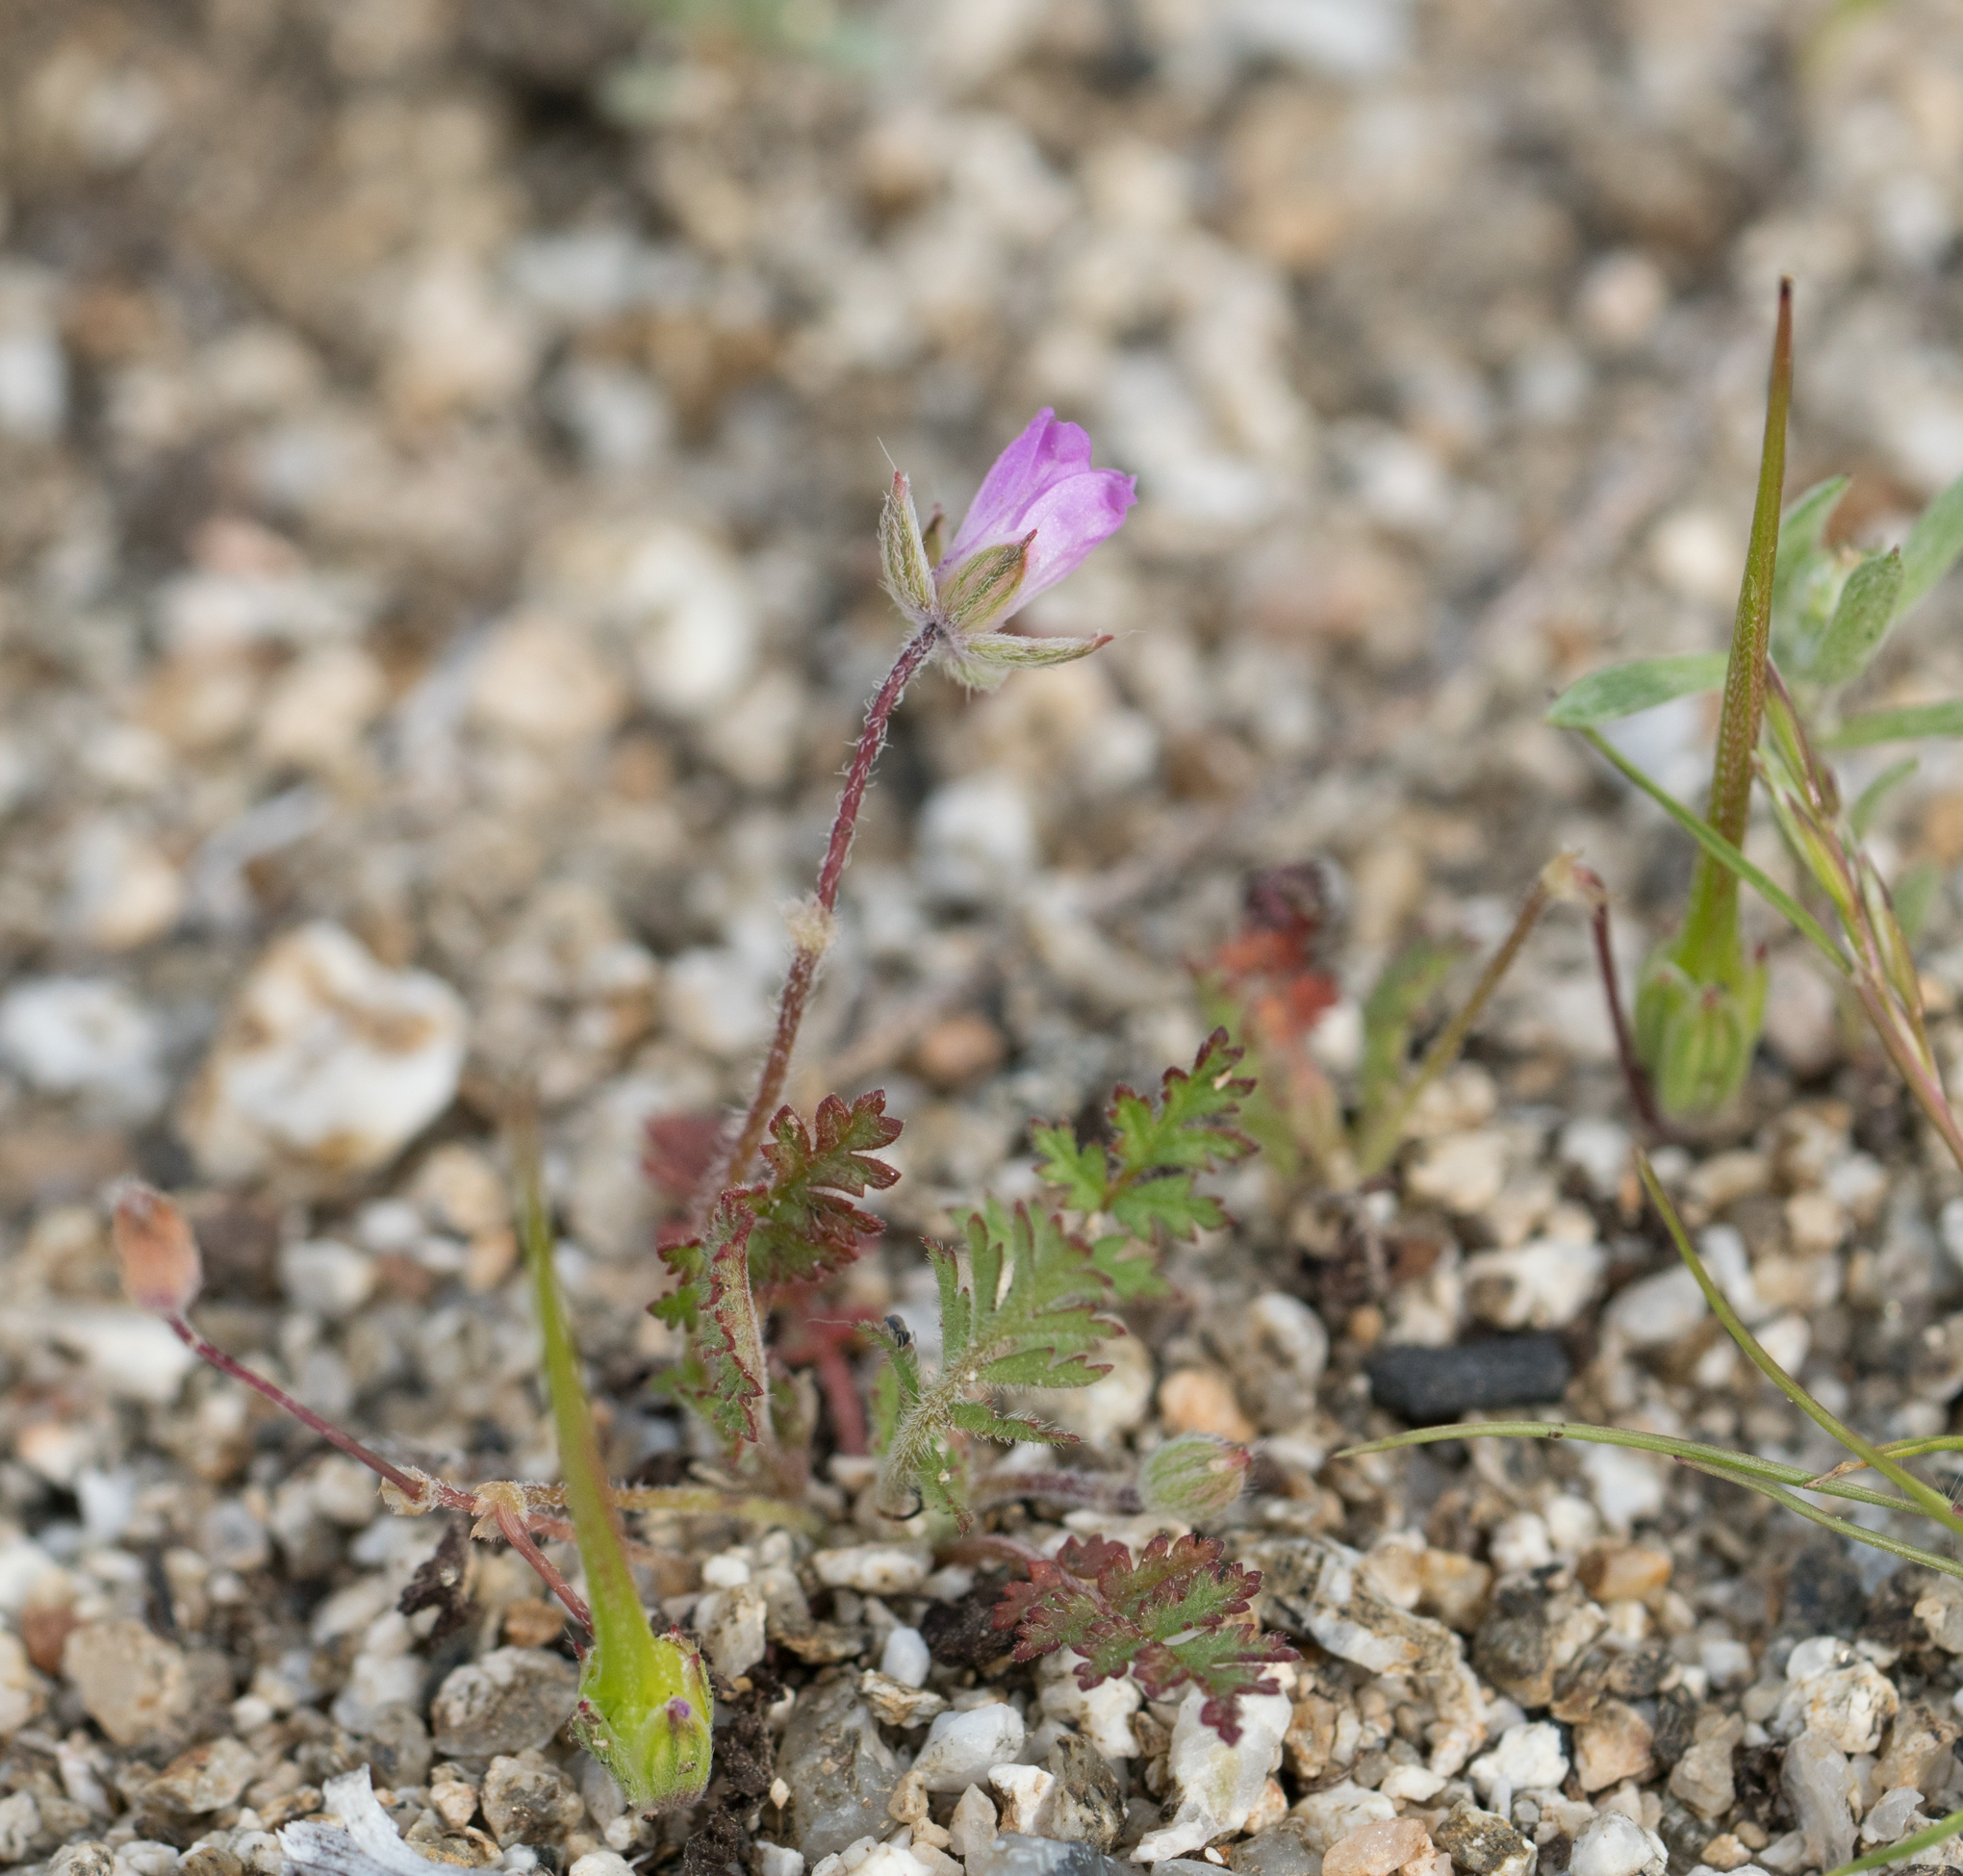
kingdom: Plantae
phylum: Tracheophyta
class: Magnoliopsida
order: Geraniales
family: Geraniaceae
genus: Erodium
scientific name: Erodium cicutarium
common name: Common stork's-bill
